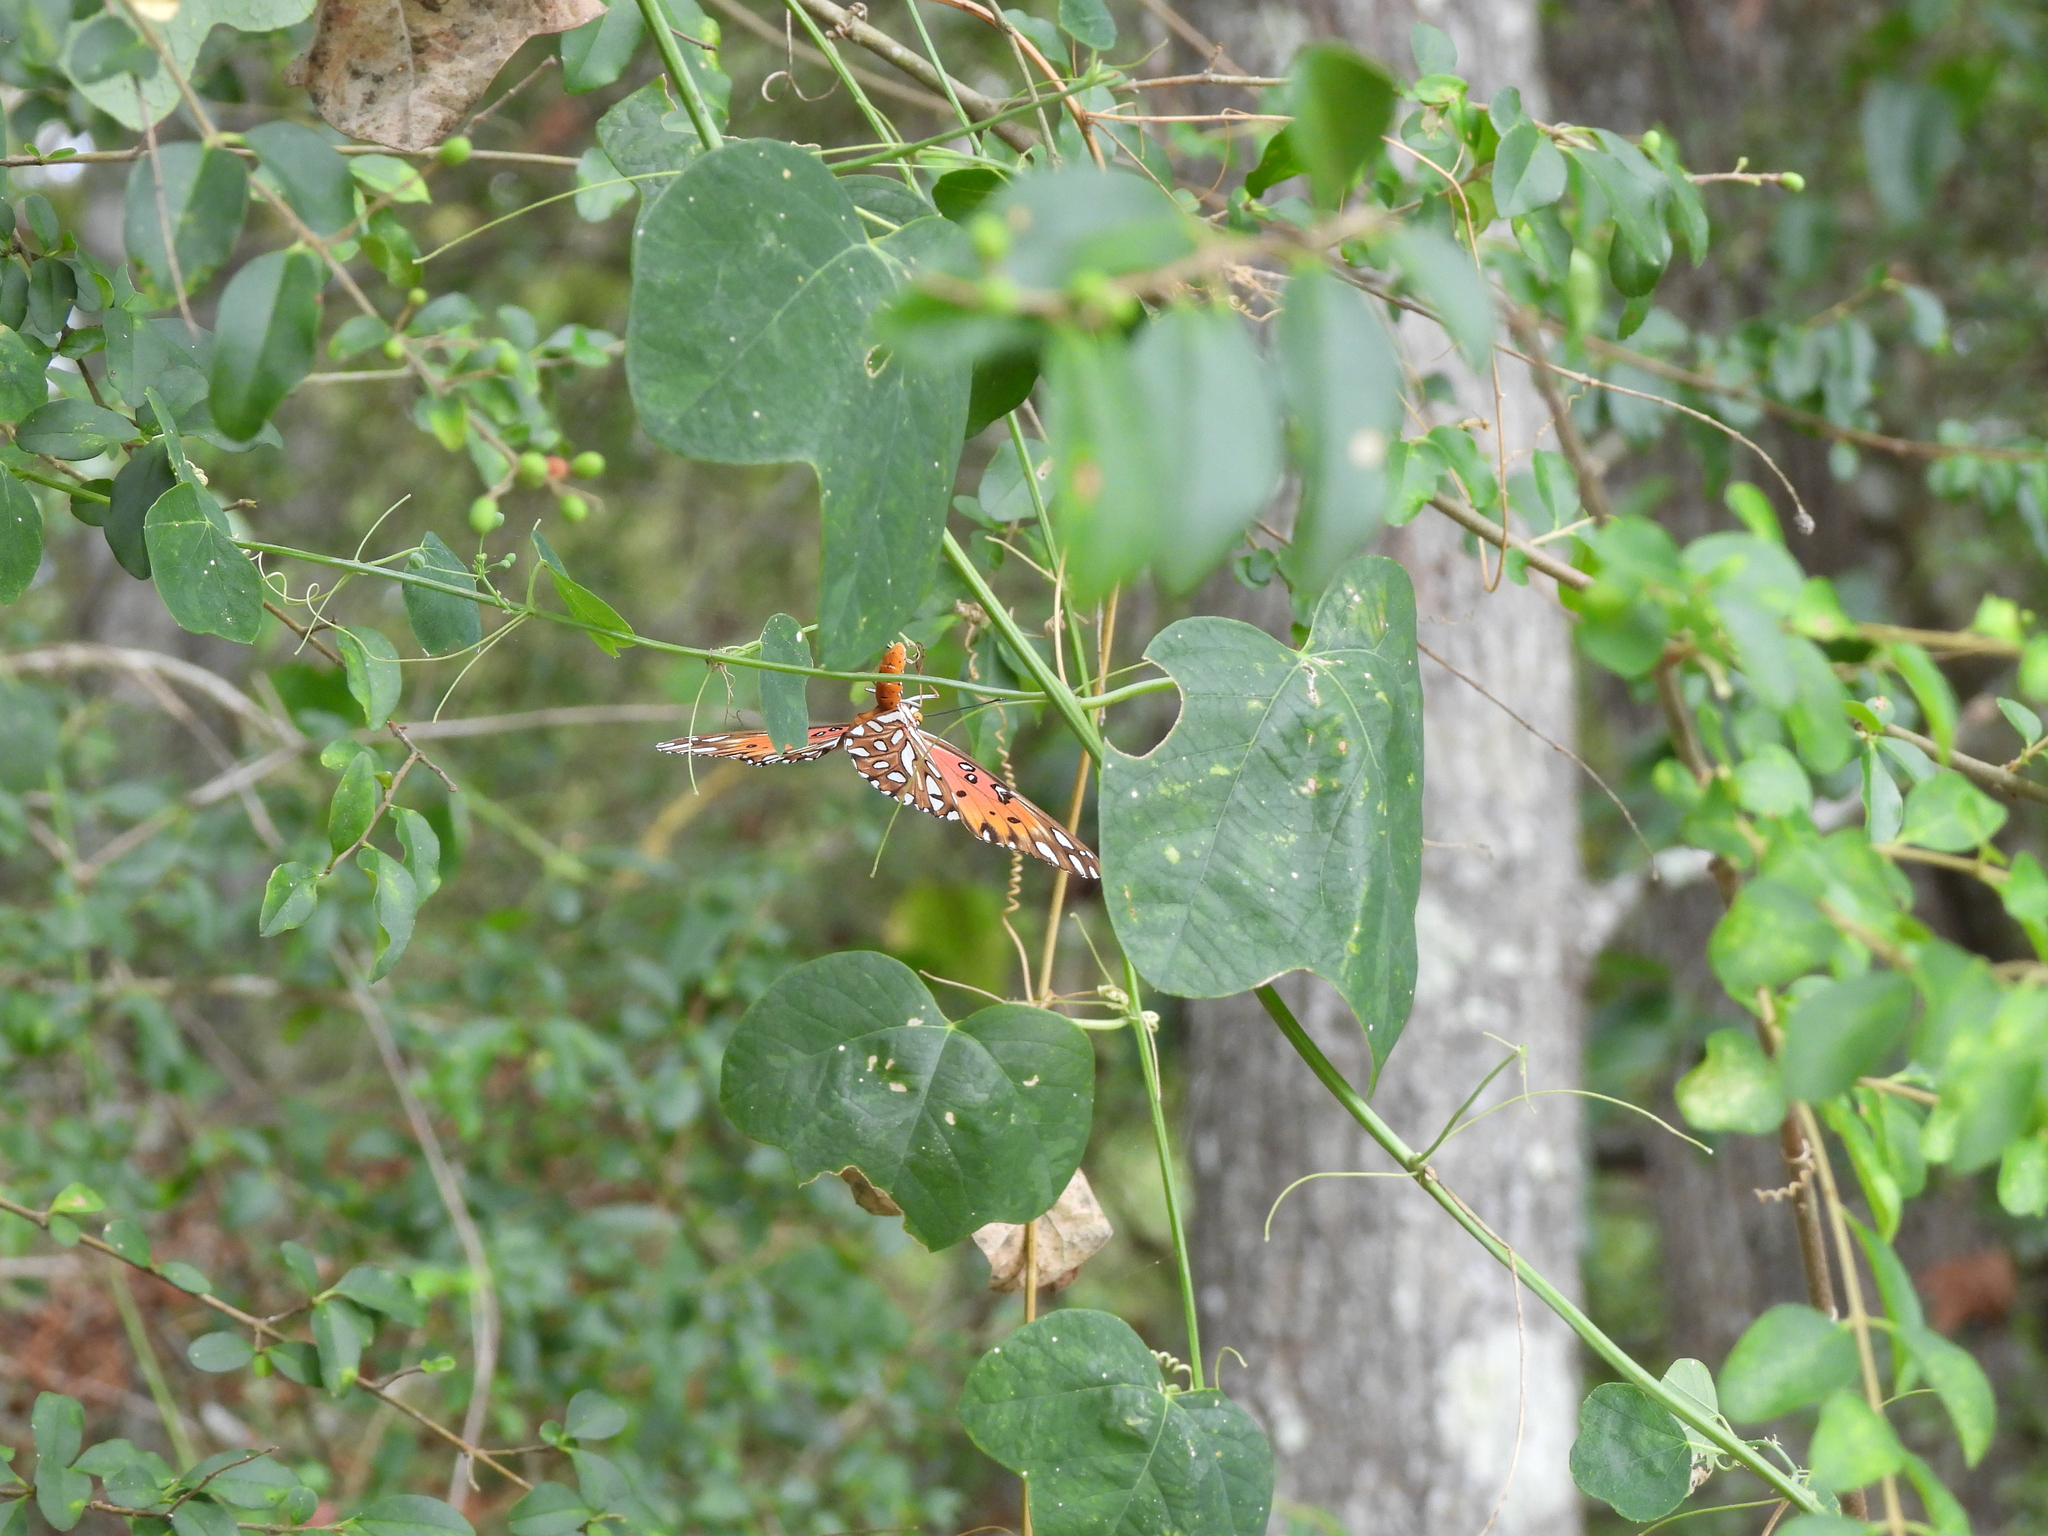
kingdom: Animalia
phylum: Arthropoda
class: Insecta
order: Lepidoptera
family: Nymphalidae
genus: Dione
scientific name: Dione vanillae
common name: Gulf fritillary
